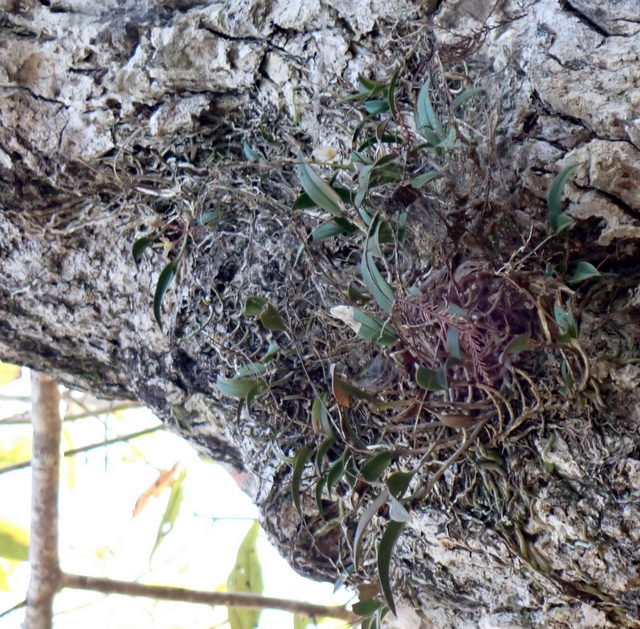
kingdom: Plantae
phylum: Tracheophyta
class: Liliopsida
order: Asparagales
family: Orchidaceae
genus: Epidendrum
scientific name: Epidendrum conopseum
